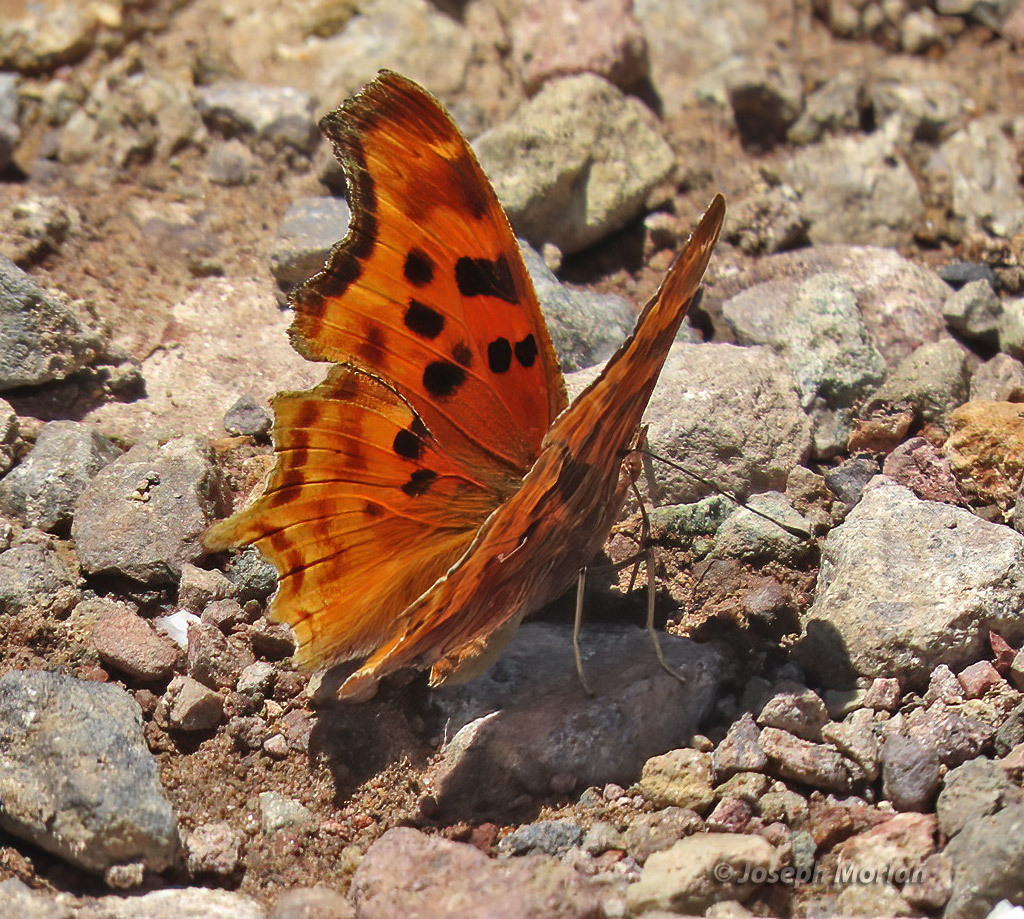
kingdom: Animalia
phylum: Arthropoda
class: Insecta
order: Lepidoptera
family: Nymphalidae
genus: Polygonia
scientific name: Polygonia satyrus
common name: Satyr angle wing
